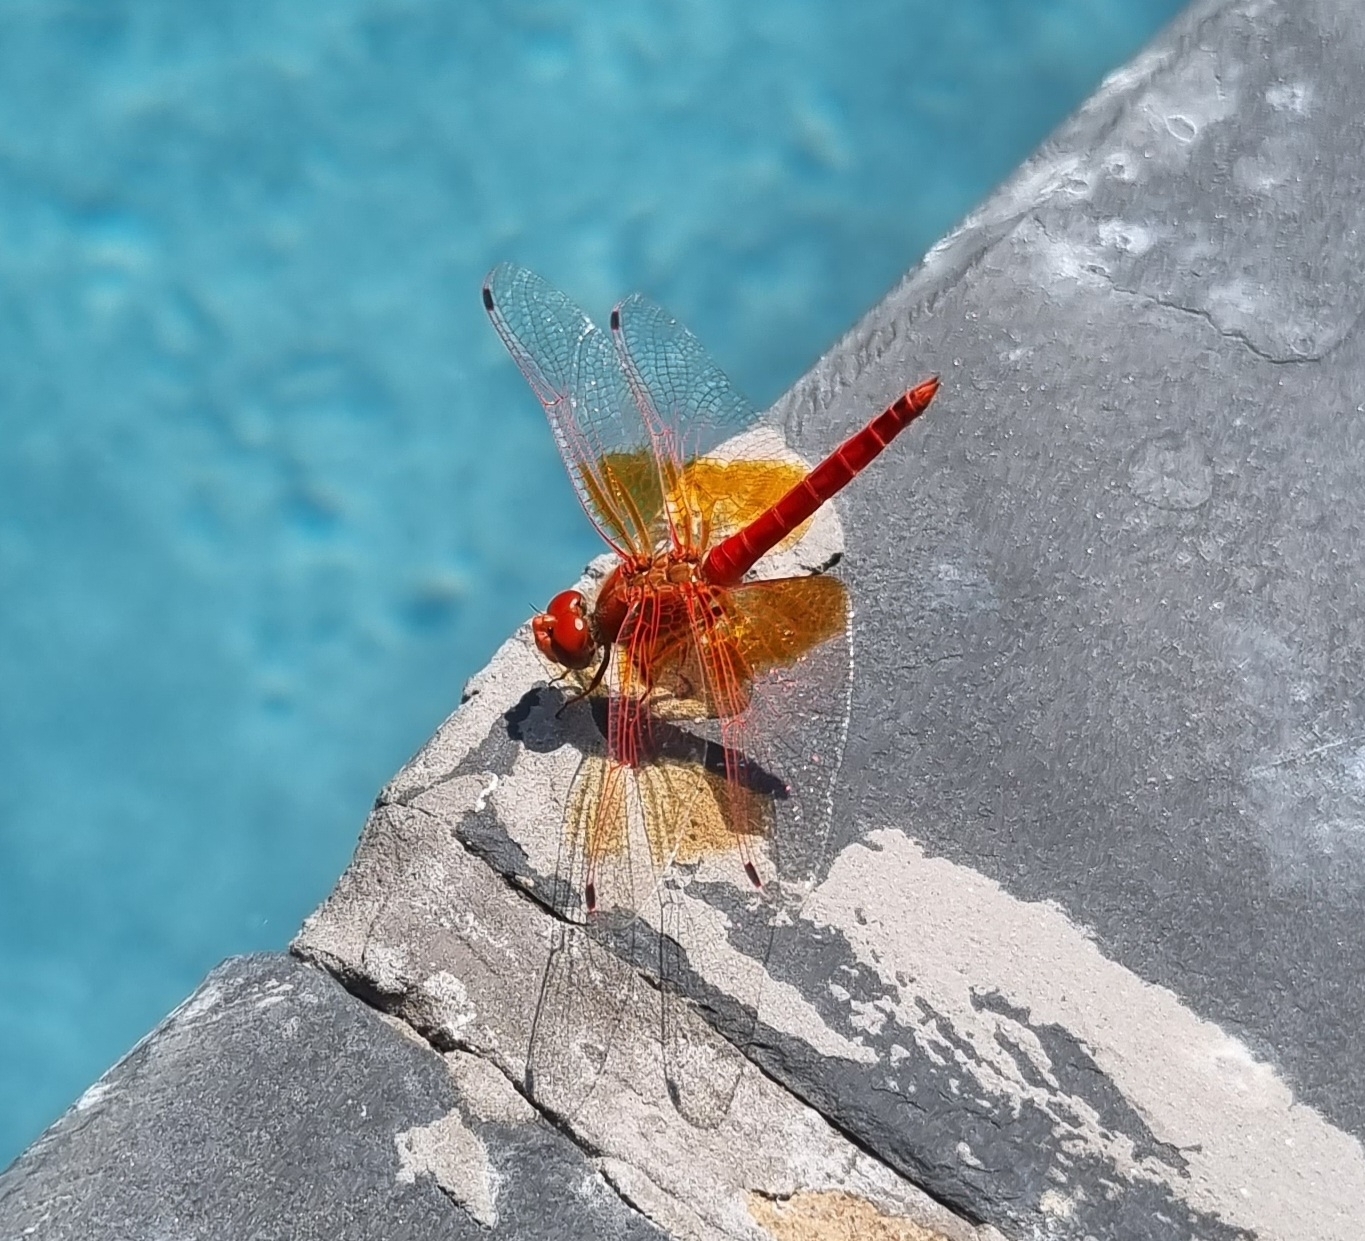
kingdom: Animalia
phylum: Arthropoda
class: Insecta
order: Odonata
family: Libellulidae
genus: Trithemis
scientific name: Trithemis kirbyi
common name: Kirby's dropwing
